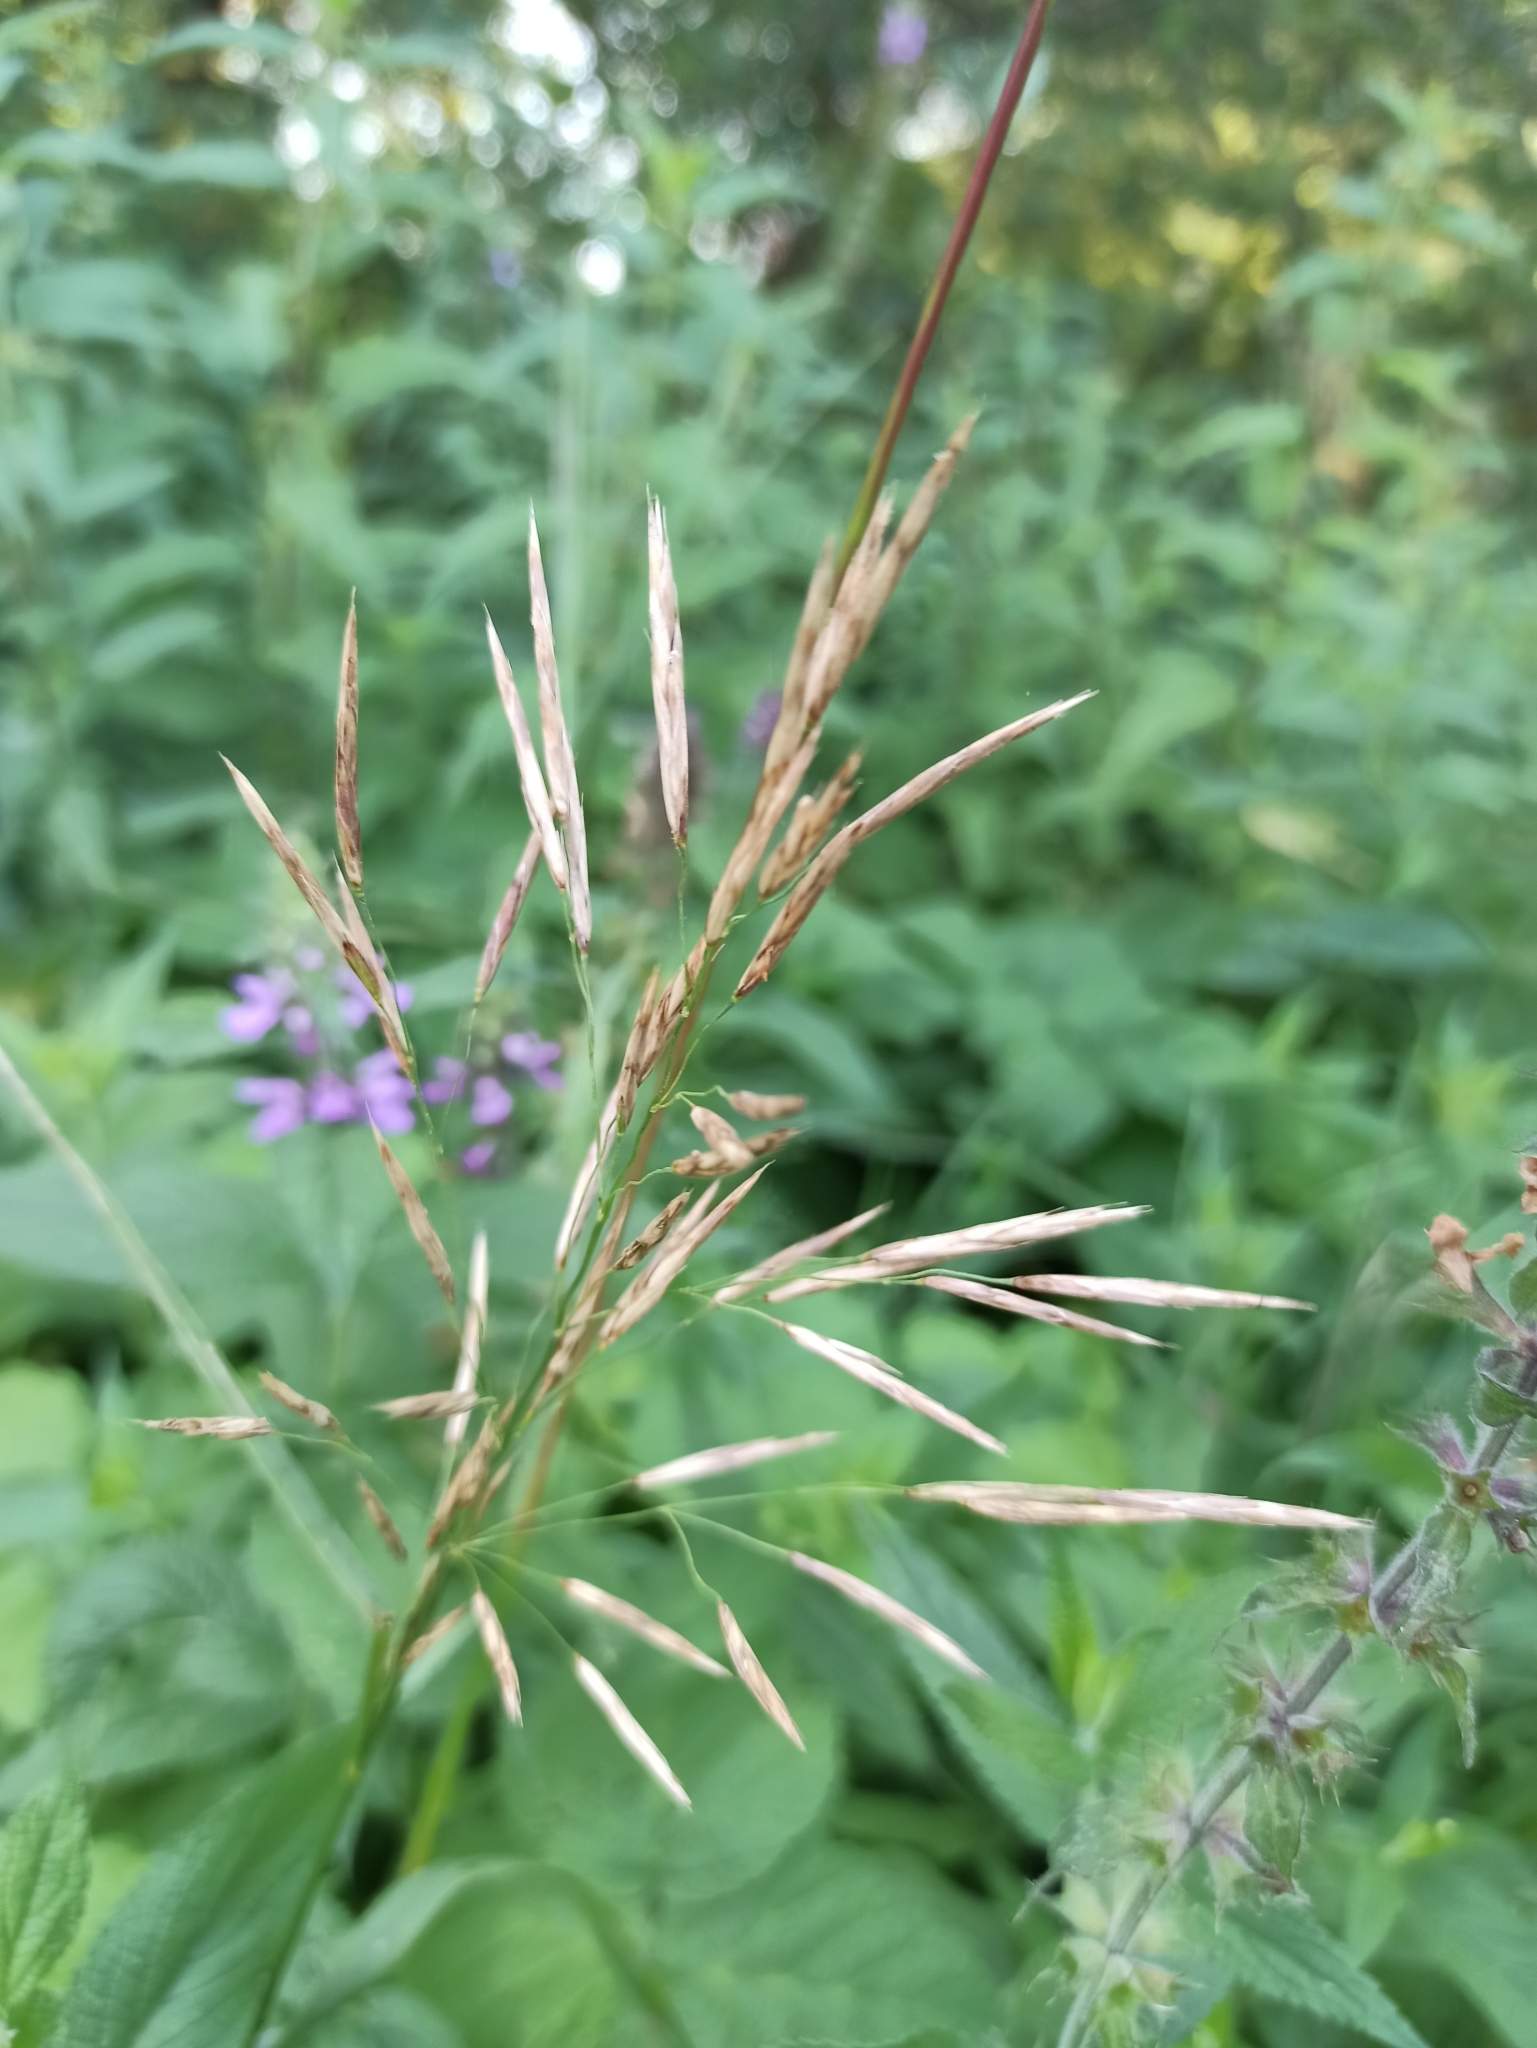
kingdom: Plantae
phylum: Tracheophyta
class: Liliopsida
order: Poales
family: Poaceae
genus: Bromus
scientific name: Bromus inermis
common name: Smooth brome
